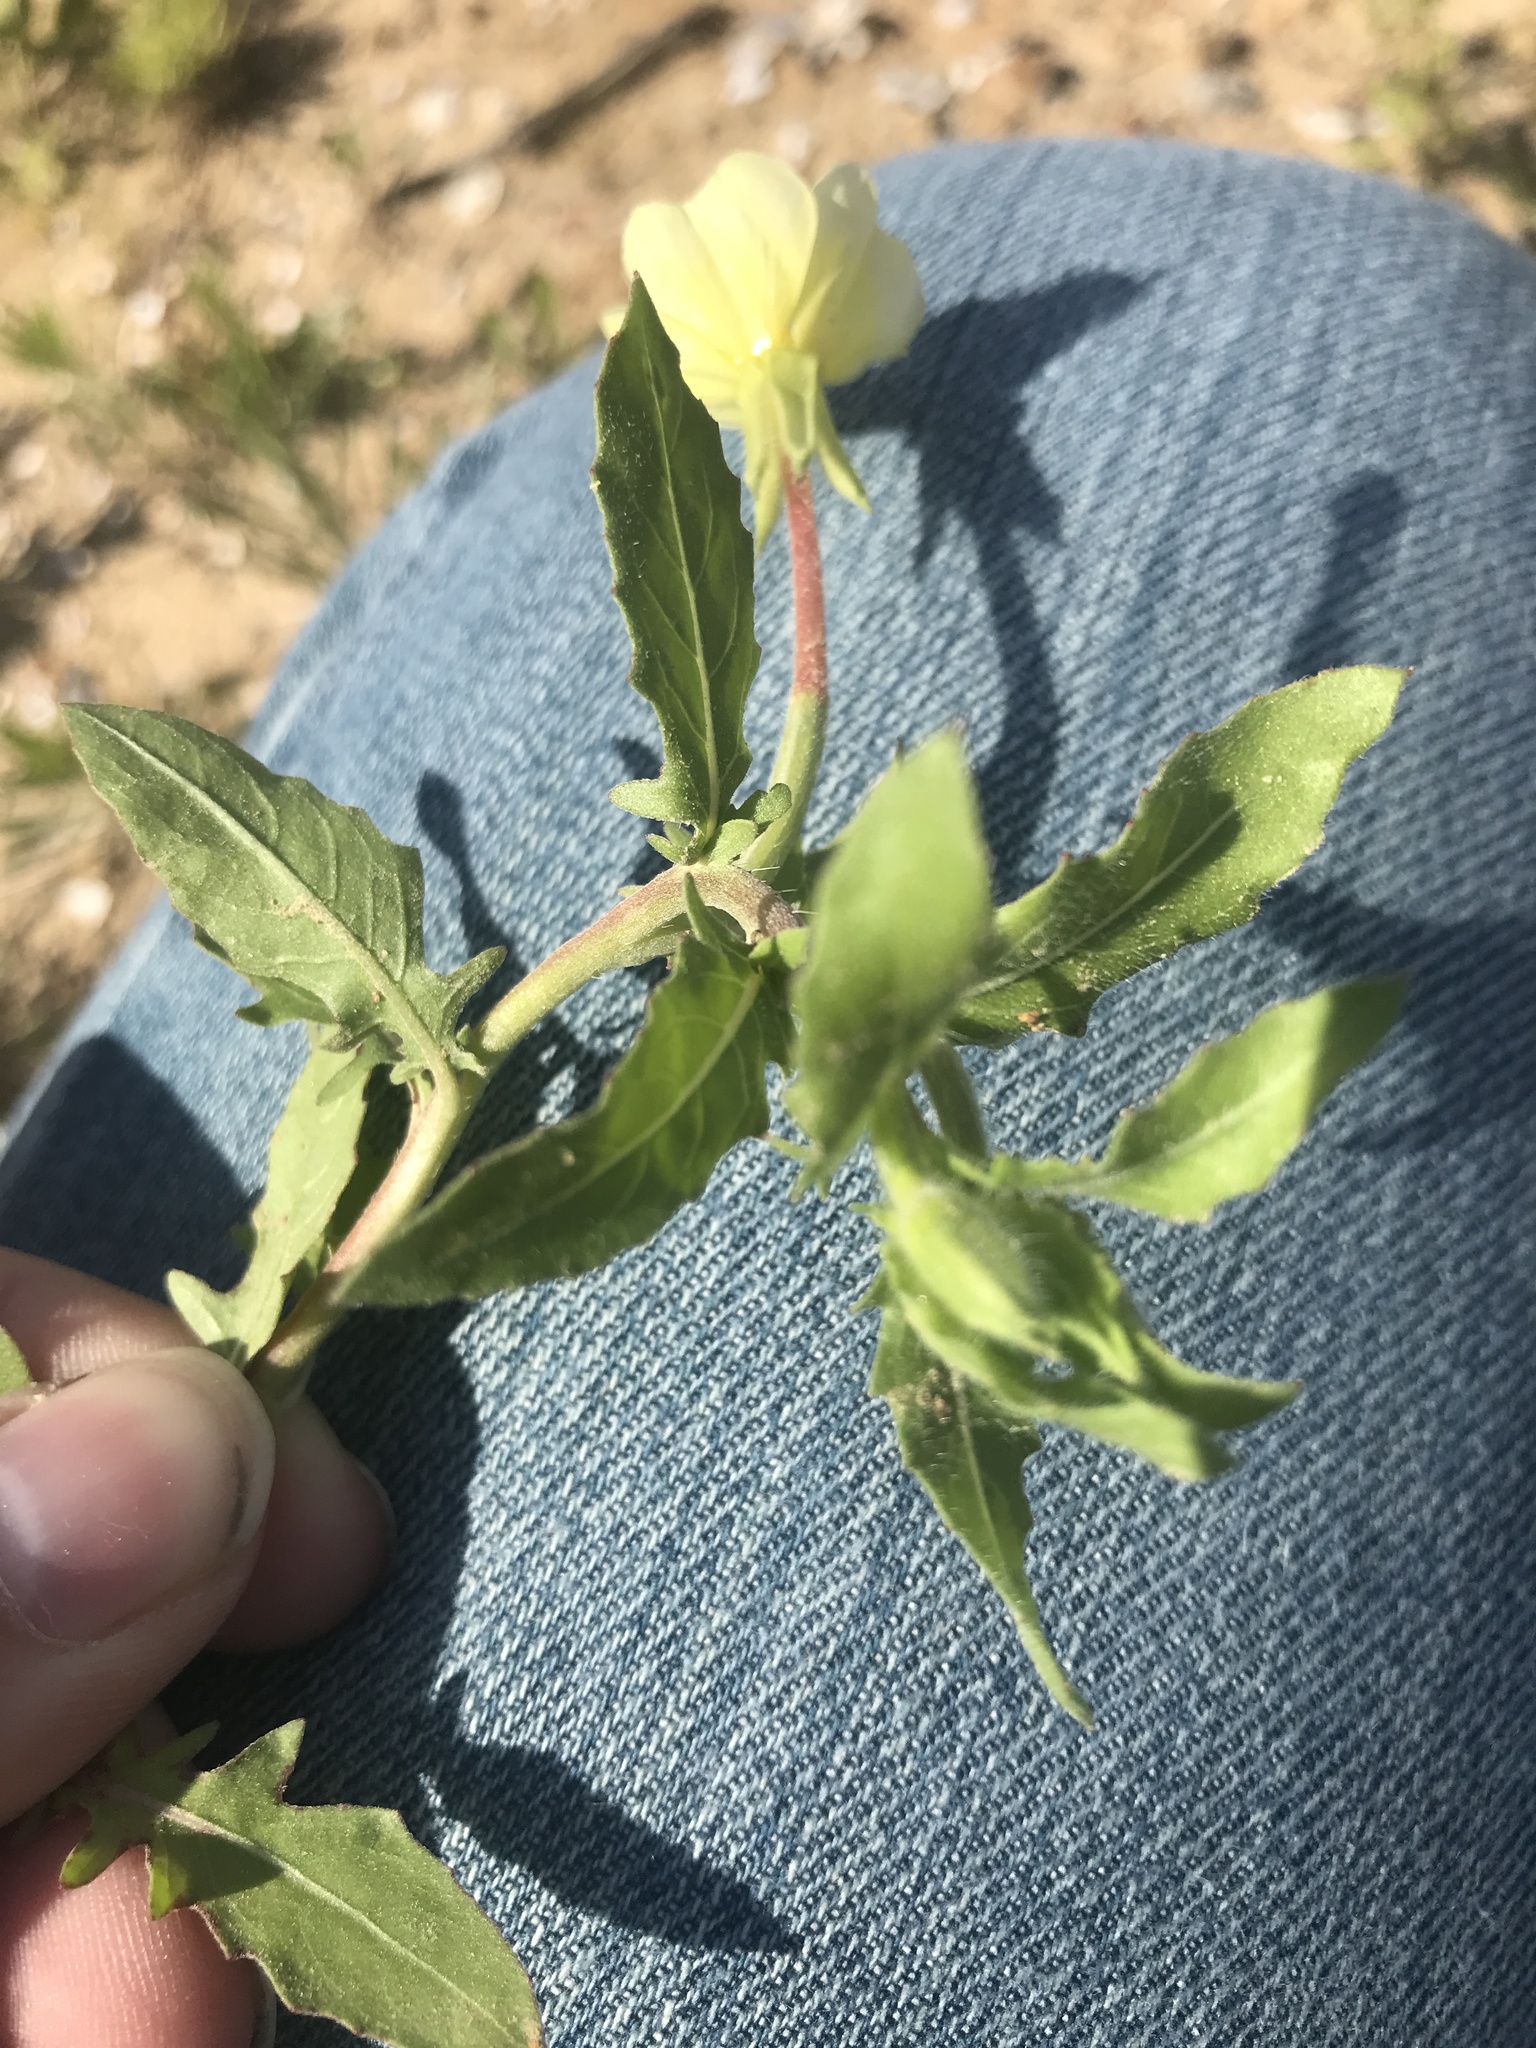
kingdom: Plantae
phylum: Tracheophyta
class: Magnoliopsida
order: Myrtales
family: Onagraceae
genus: Oenothera
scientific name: Oenothera laciniata
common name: Cut-leaved evening-primrose
